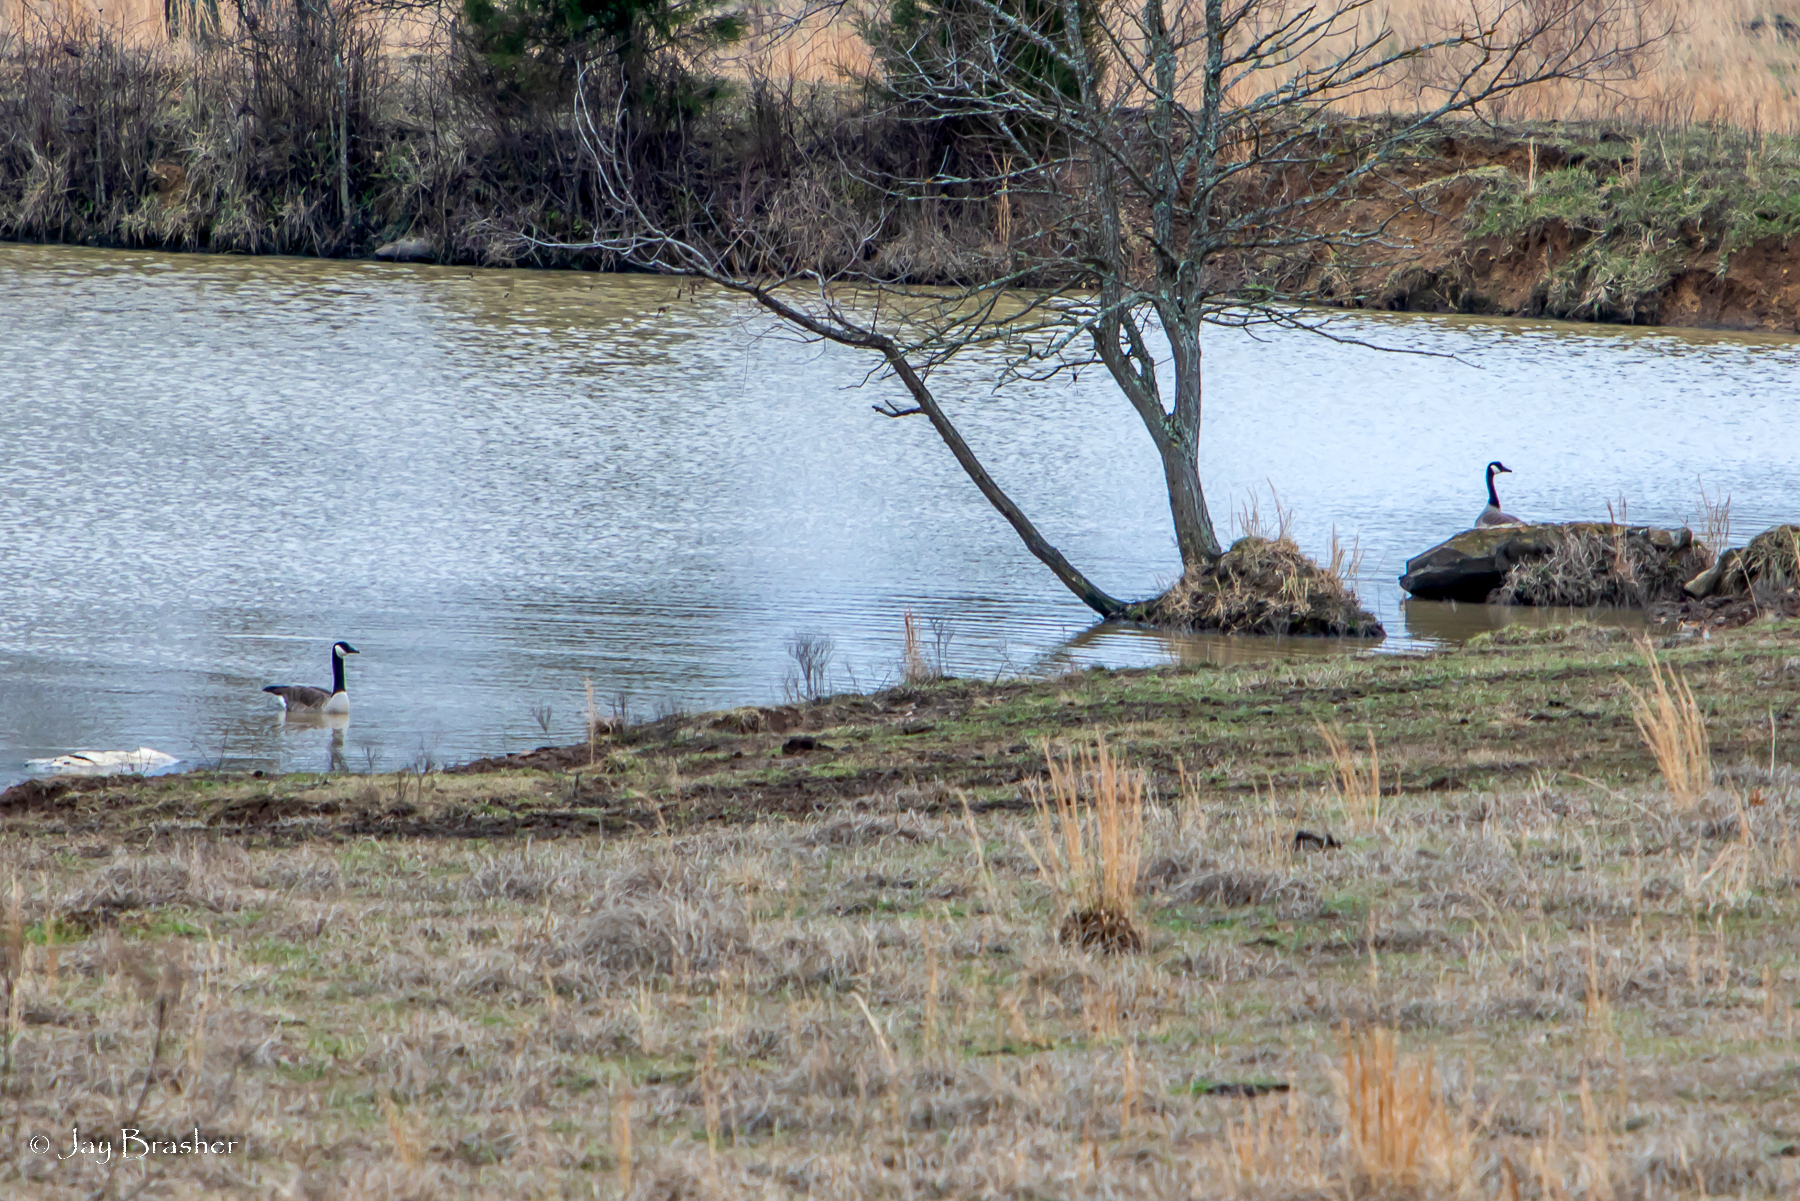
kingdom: Animalia
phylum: Chordata
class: Aves
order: Anseriformes
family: Anatidae
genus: Branta
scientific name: Branta canadensis
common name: Canada goose
